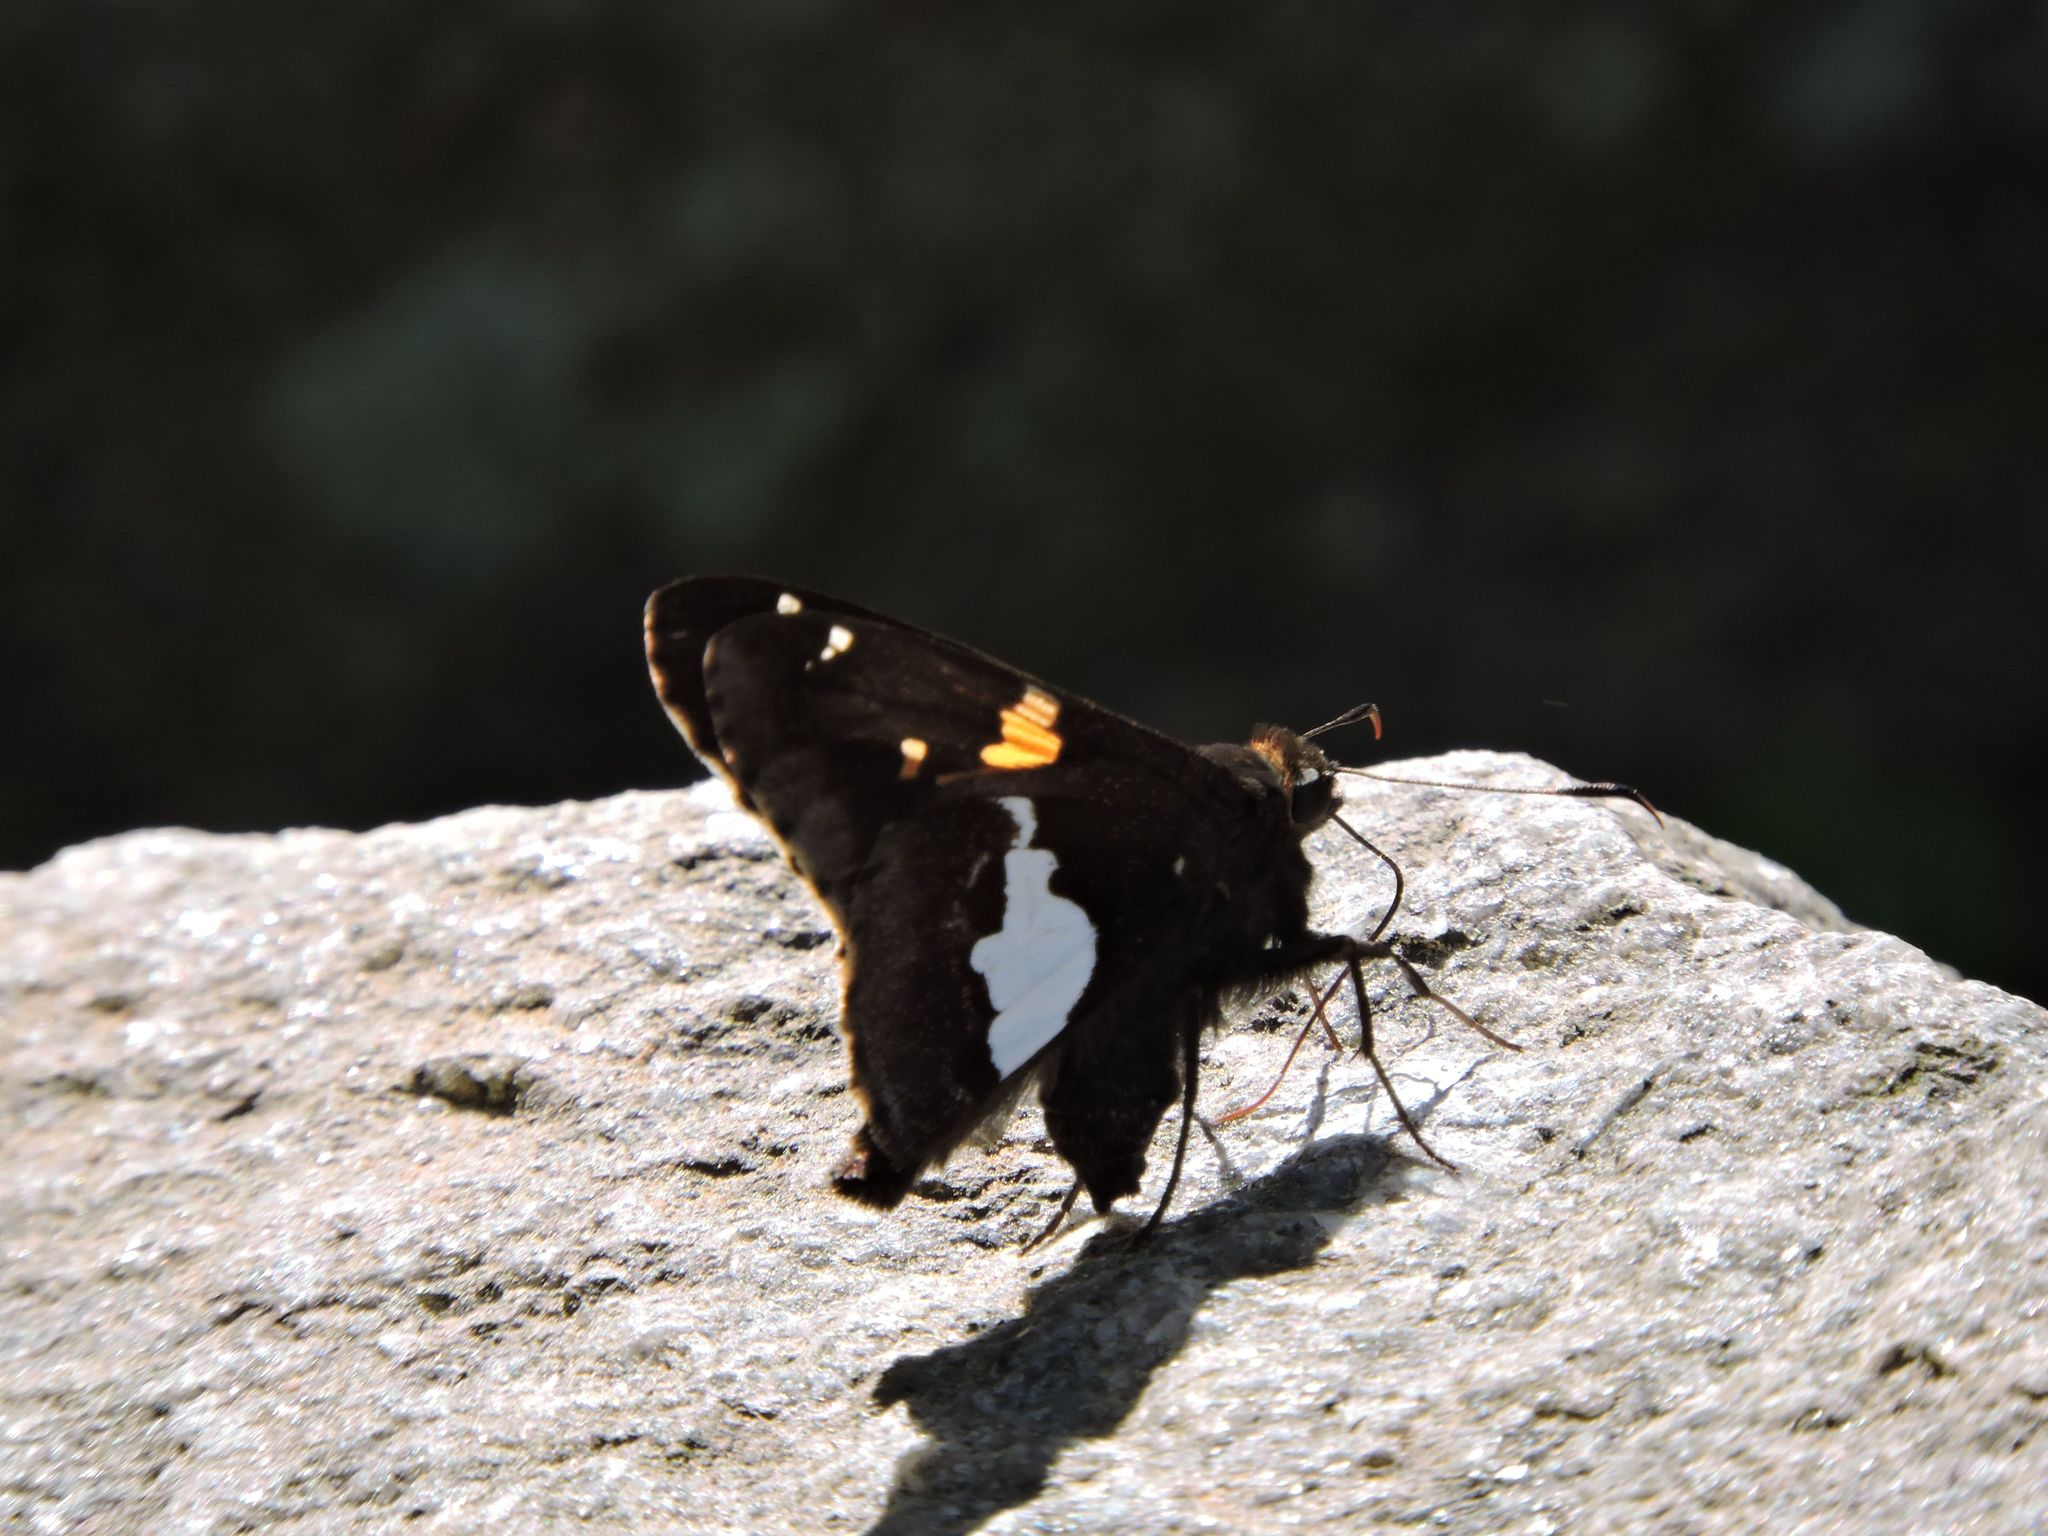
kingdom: Animalia
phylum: Arthropoda
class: Insecta
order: Lepidoptera
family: Hesperiidae
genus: Epargyreus
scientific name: Epargyreus clarus
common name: Silver-spotted skipper
